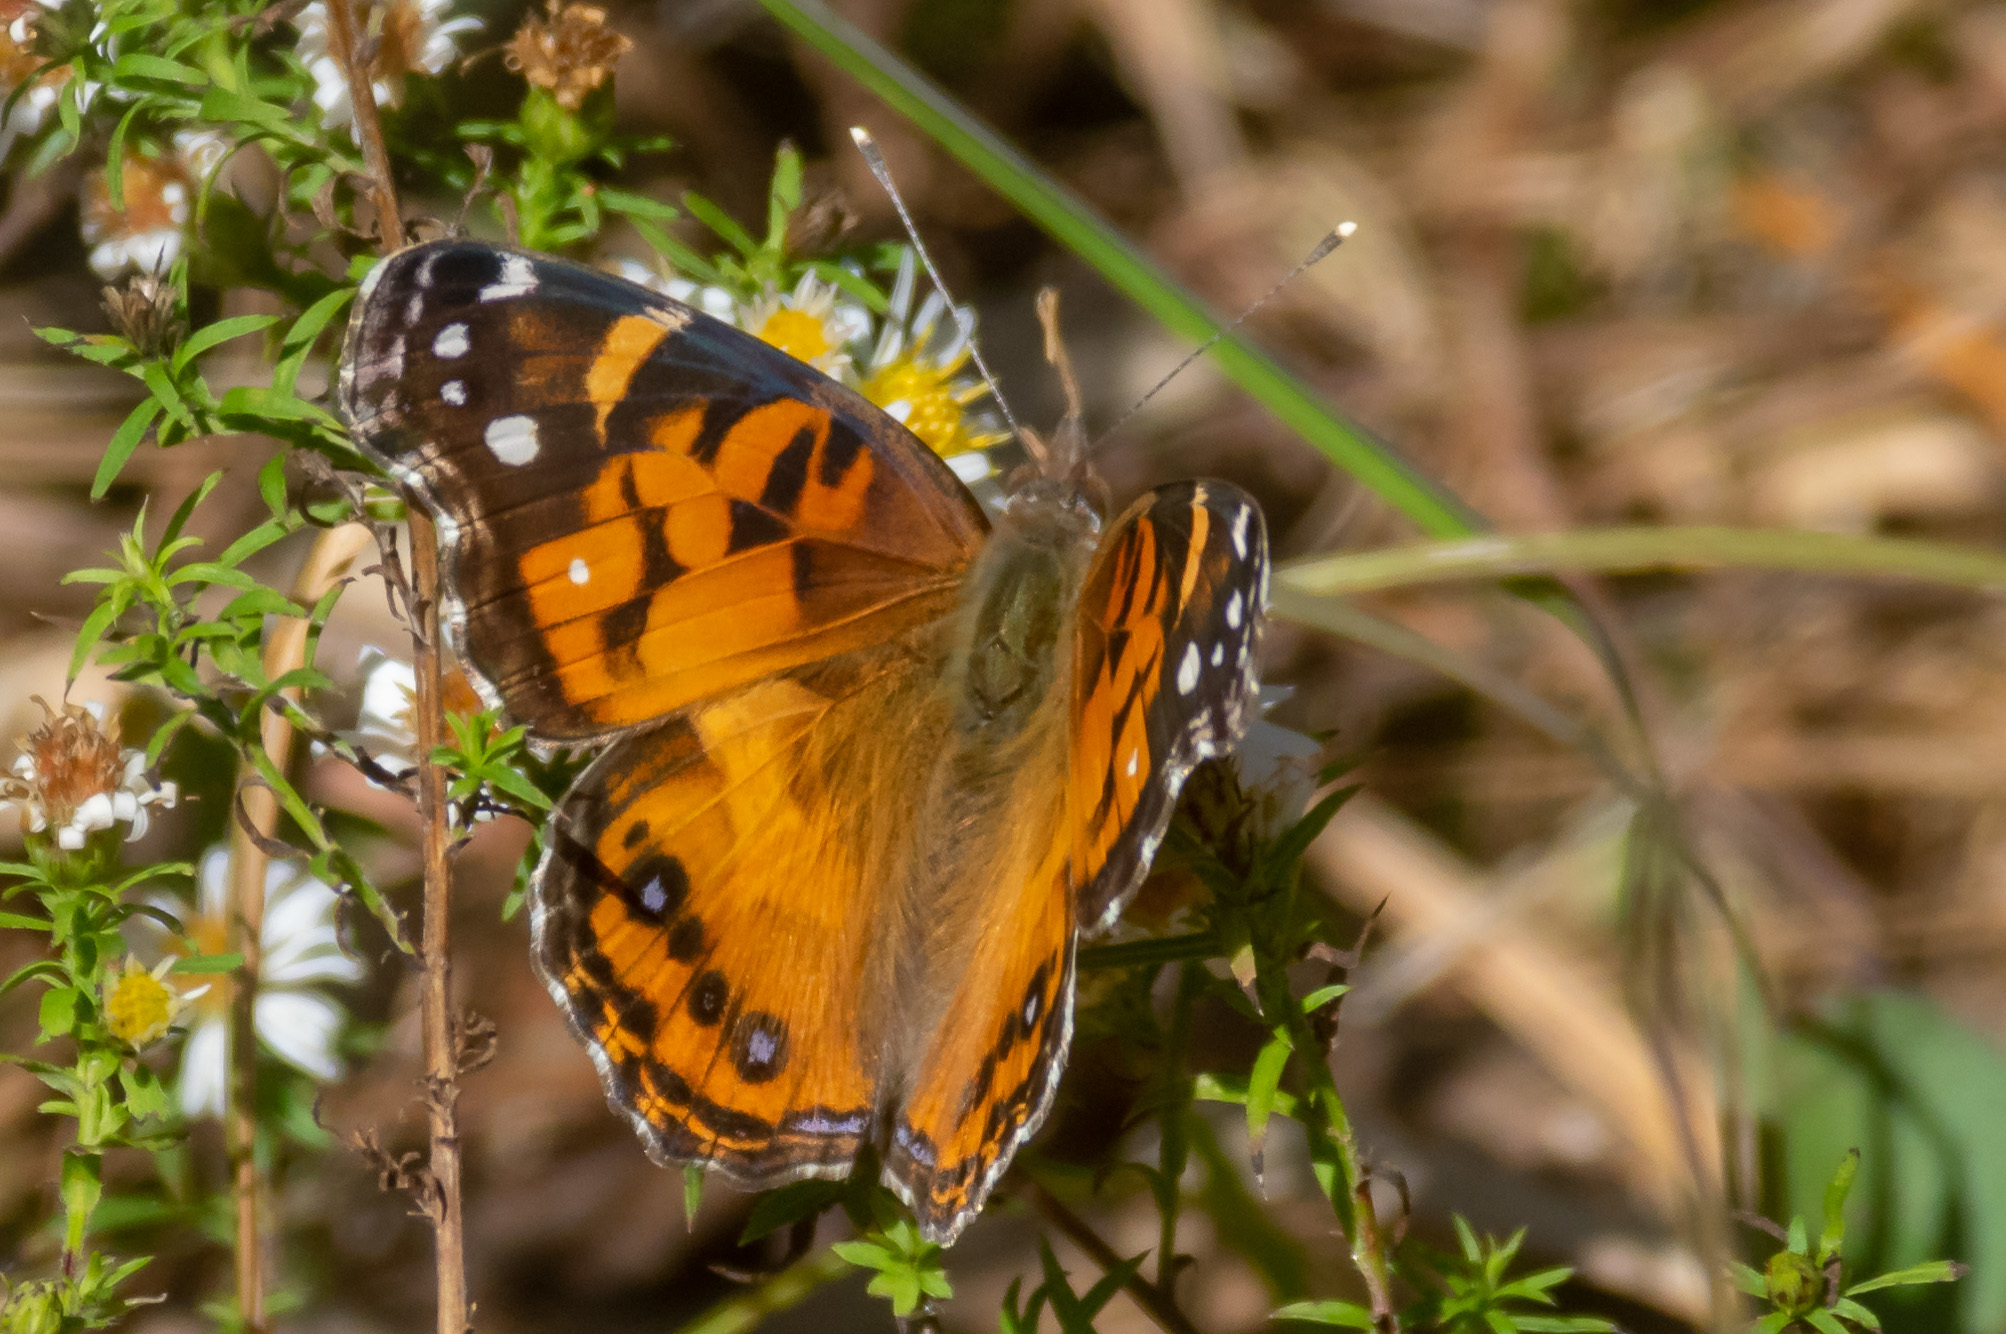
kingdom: Animalia
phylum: Arthropoda
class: Insecta
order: Lepidoptera
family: Nymphalidae
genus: Vanessa
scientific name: Vanessa virginiensis
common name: American lady
